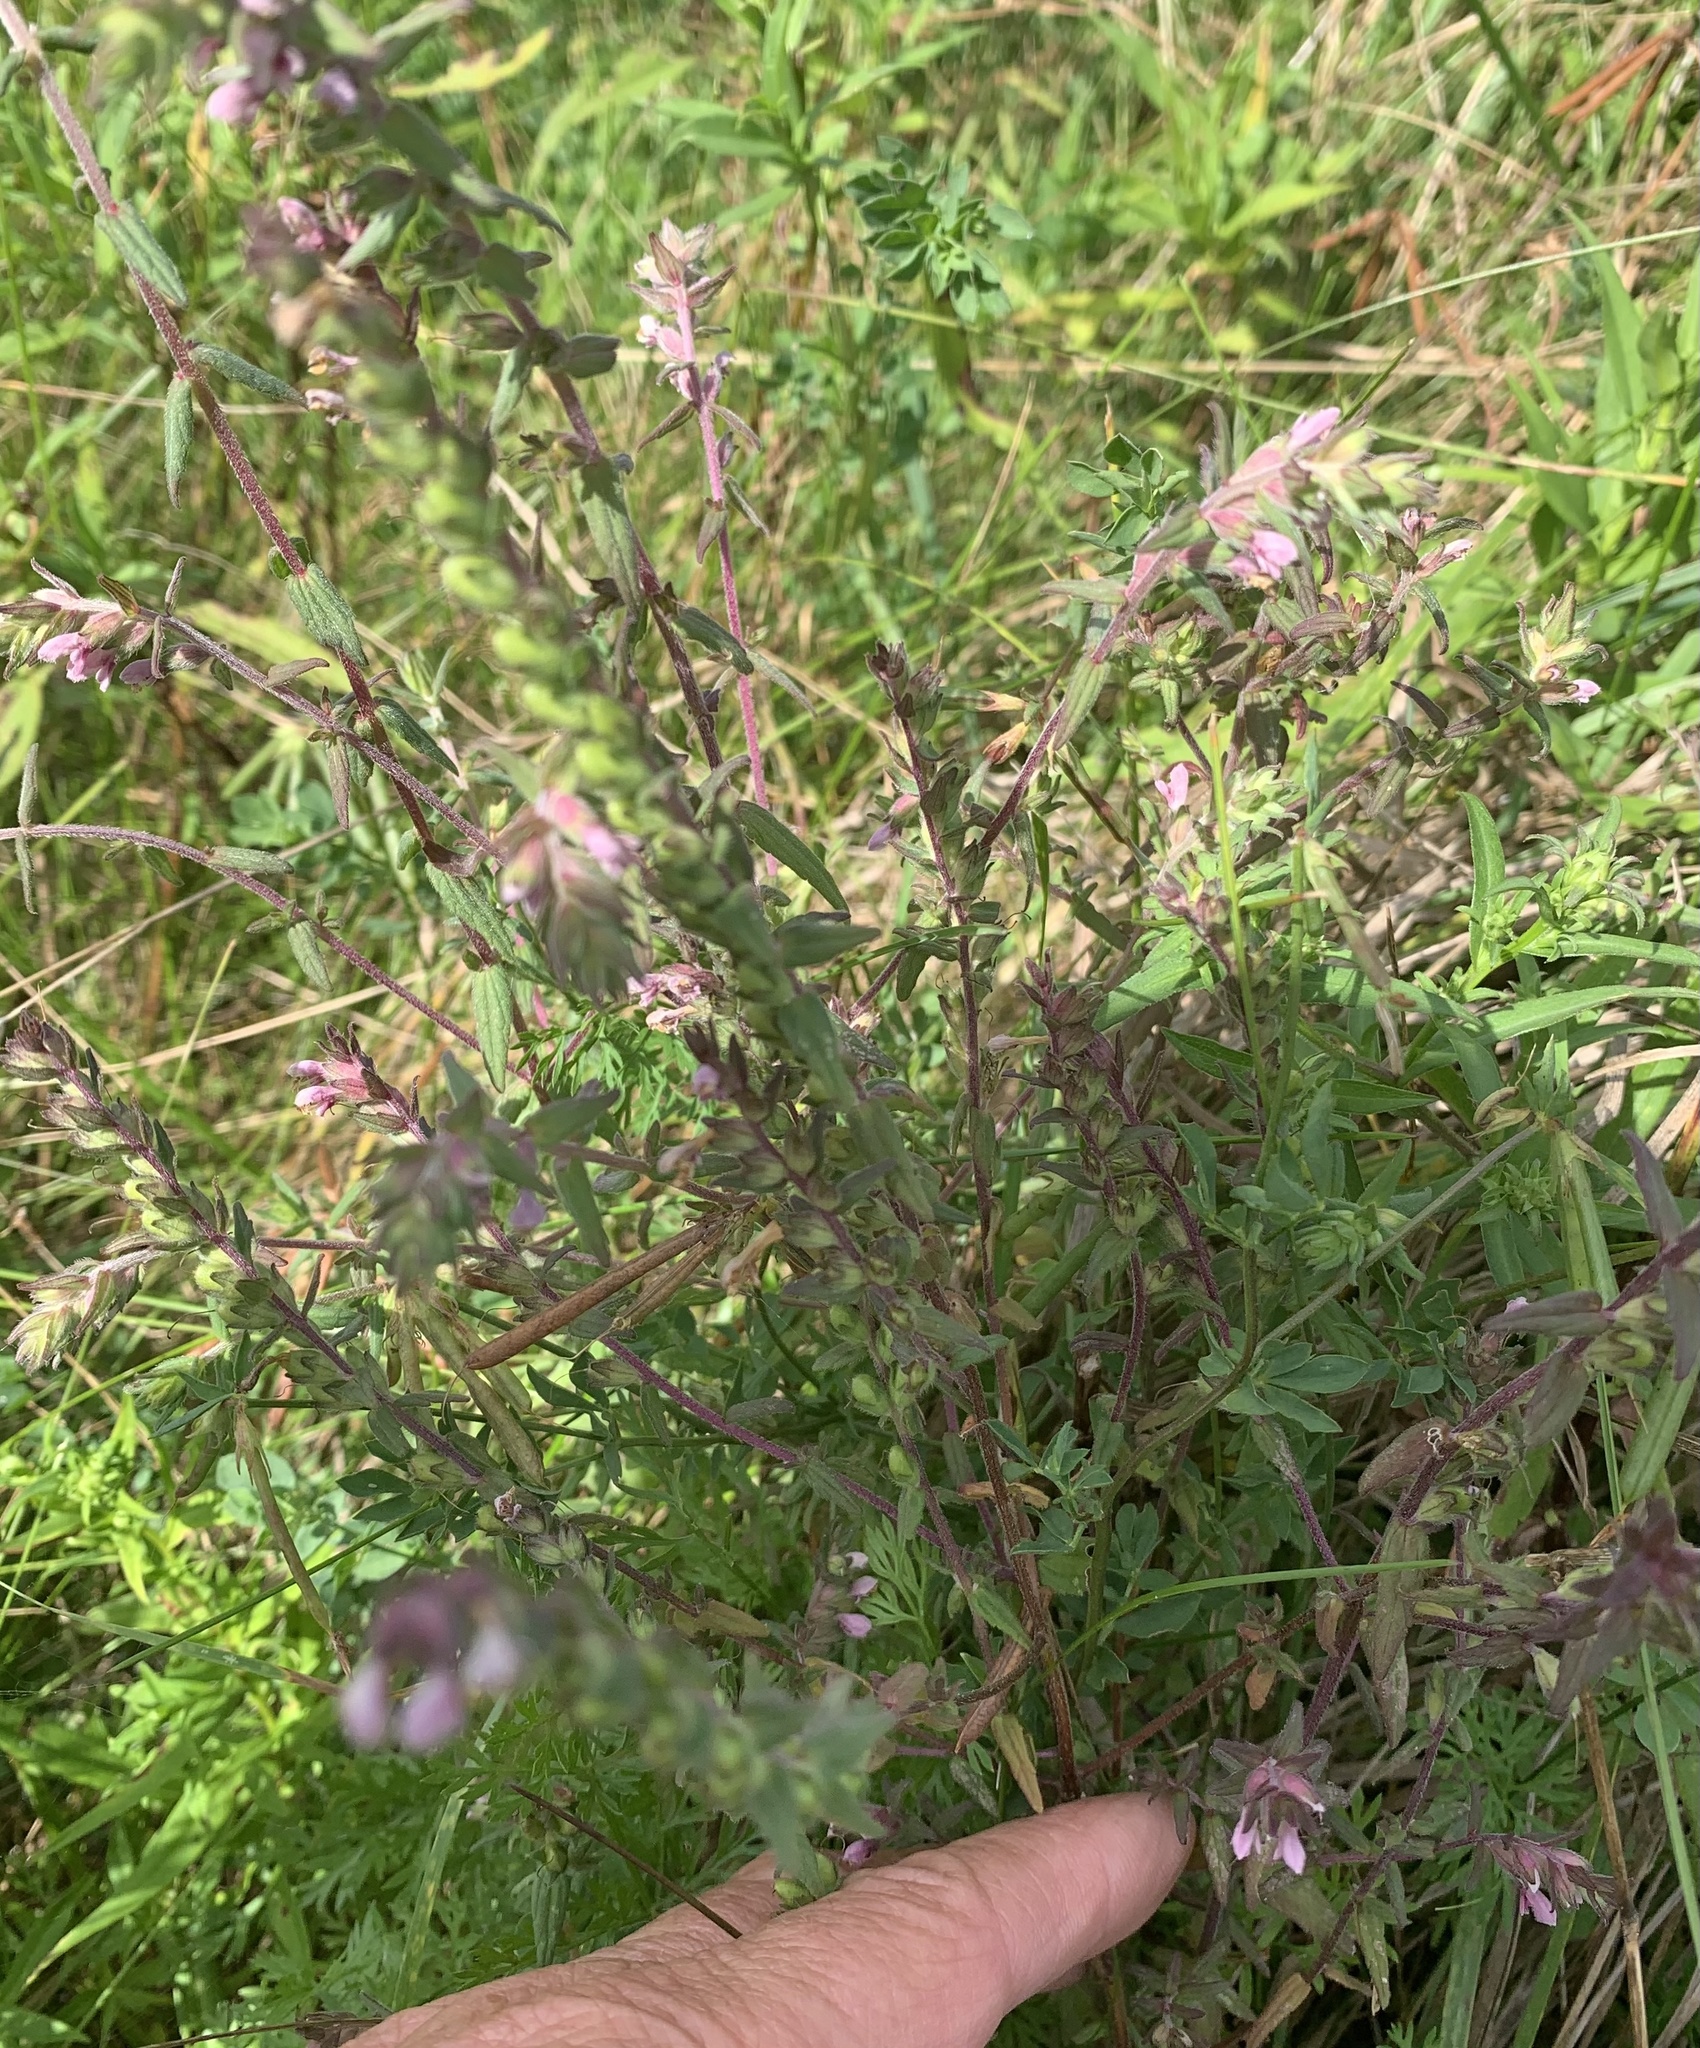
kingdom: Plantae
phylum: Tracheophyta
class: Magnoliopsida
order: Lamiales
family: Orobanchaceae
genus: Odontites
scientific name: Odontites vulgaris
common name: Broomrape
